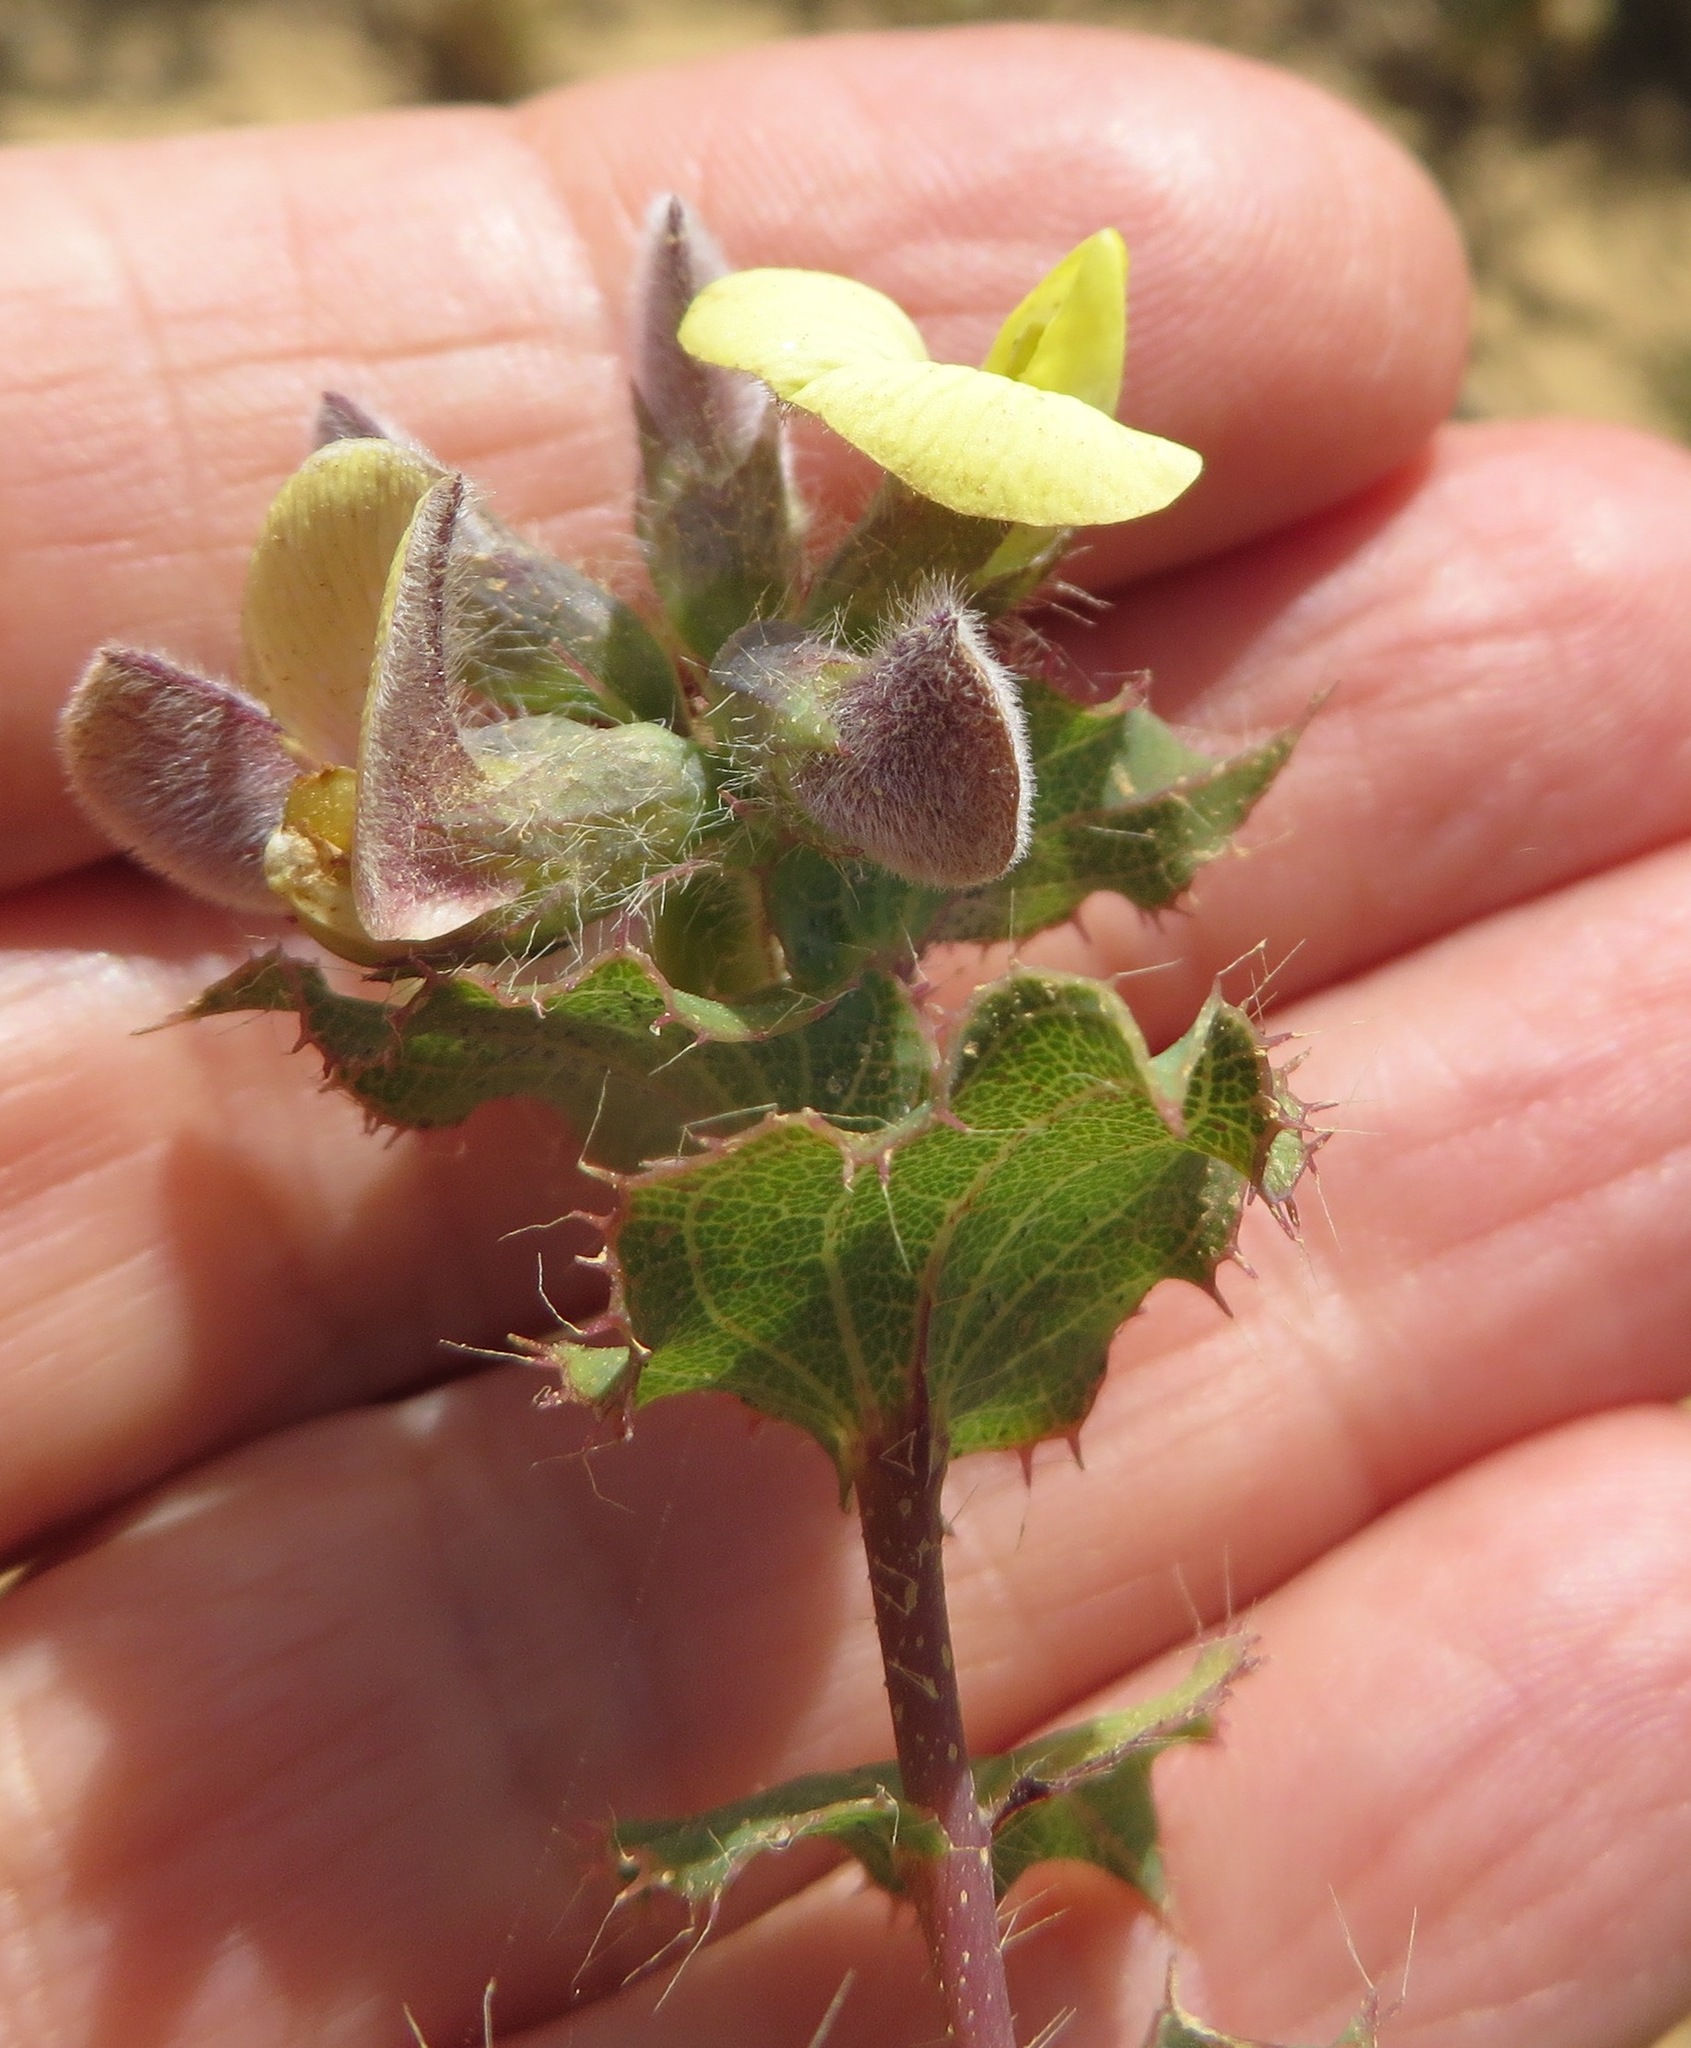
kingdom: Plantae
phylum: Tracheophyta
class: Magnoliopsida
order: Fabales
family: Fabaceae
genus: Aspalathus
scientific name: Aspalathus perfoliata
